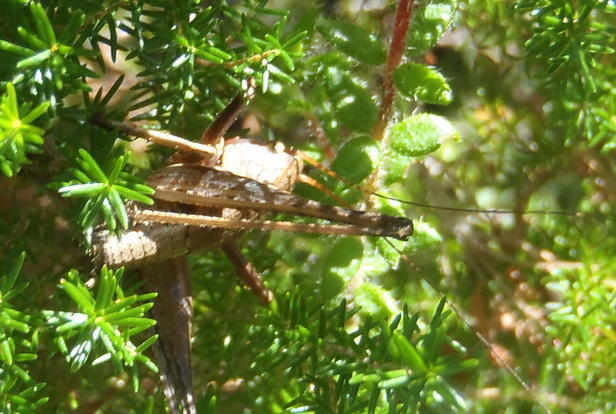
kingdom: Animalia
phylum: Arthropoda
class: Insecta
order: Orthoptera
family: Tettigoniidae
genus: Alfredectes
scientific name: Alfredectes semiaeneus
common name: Alfred's shieldback
